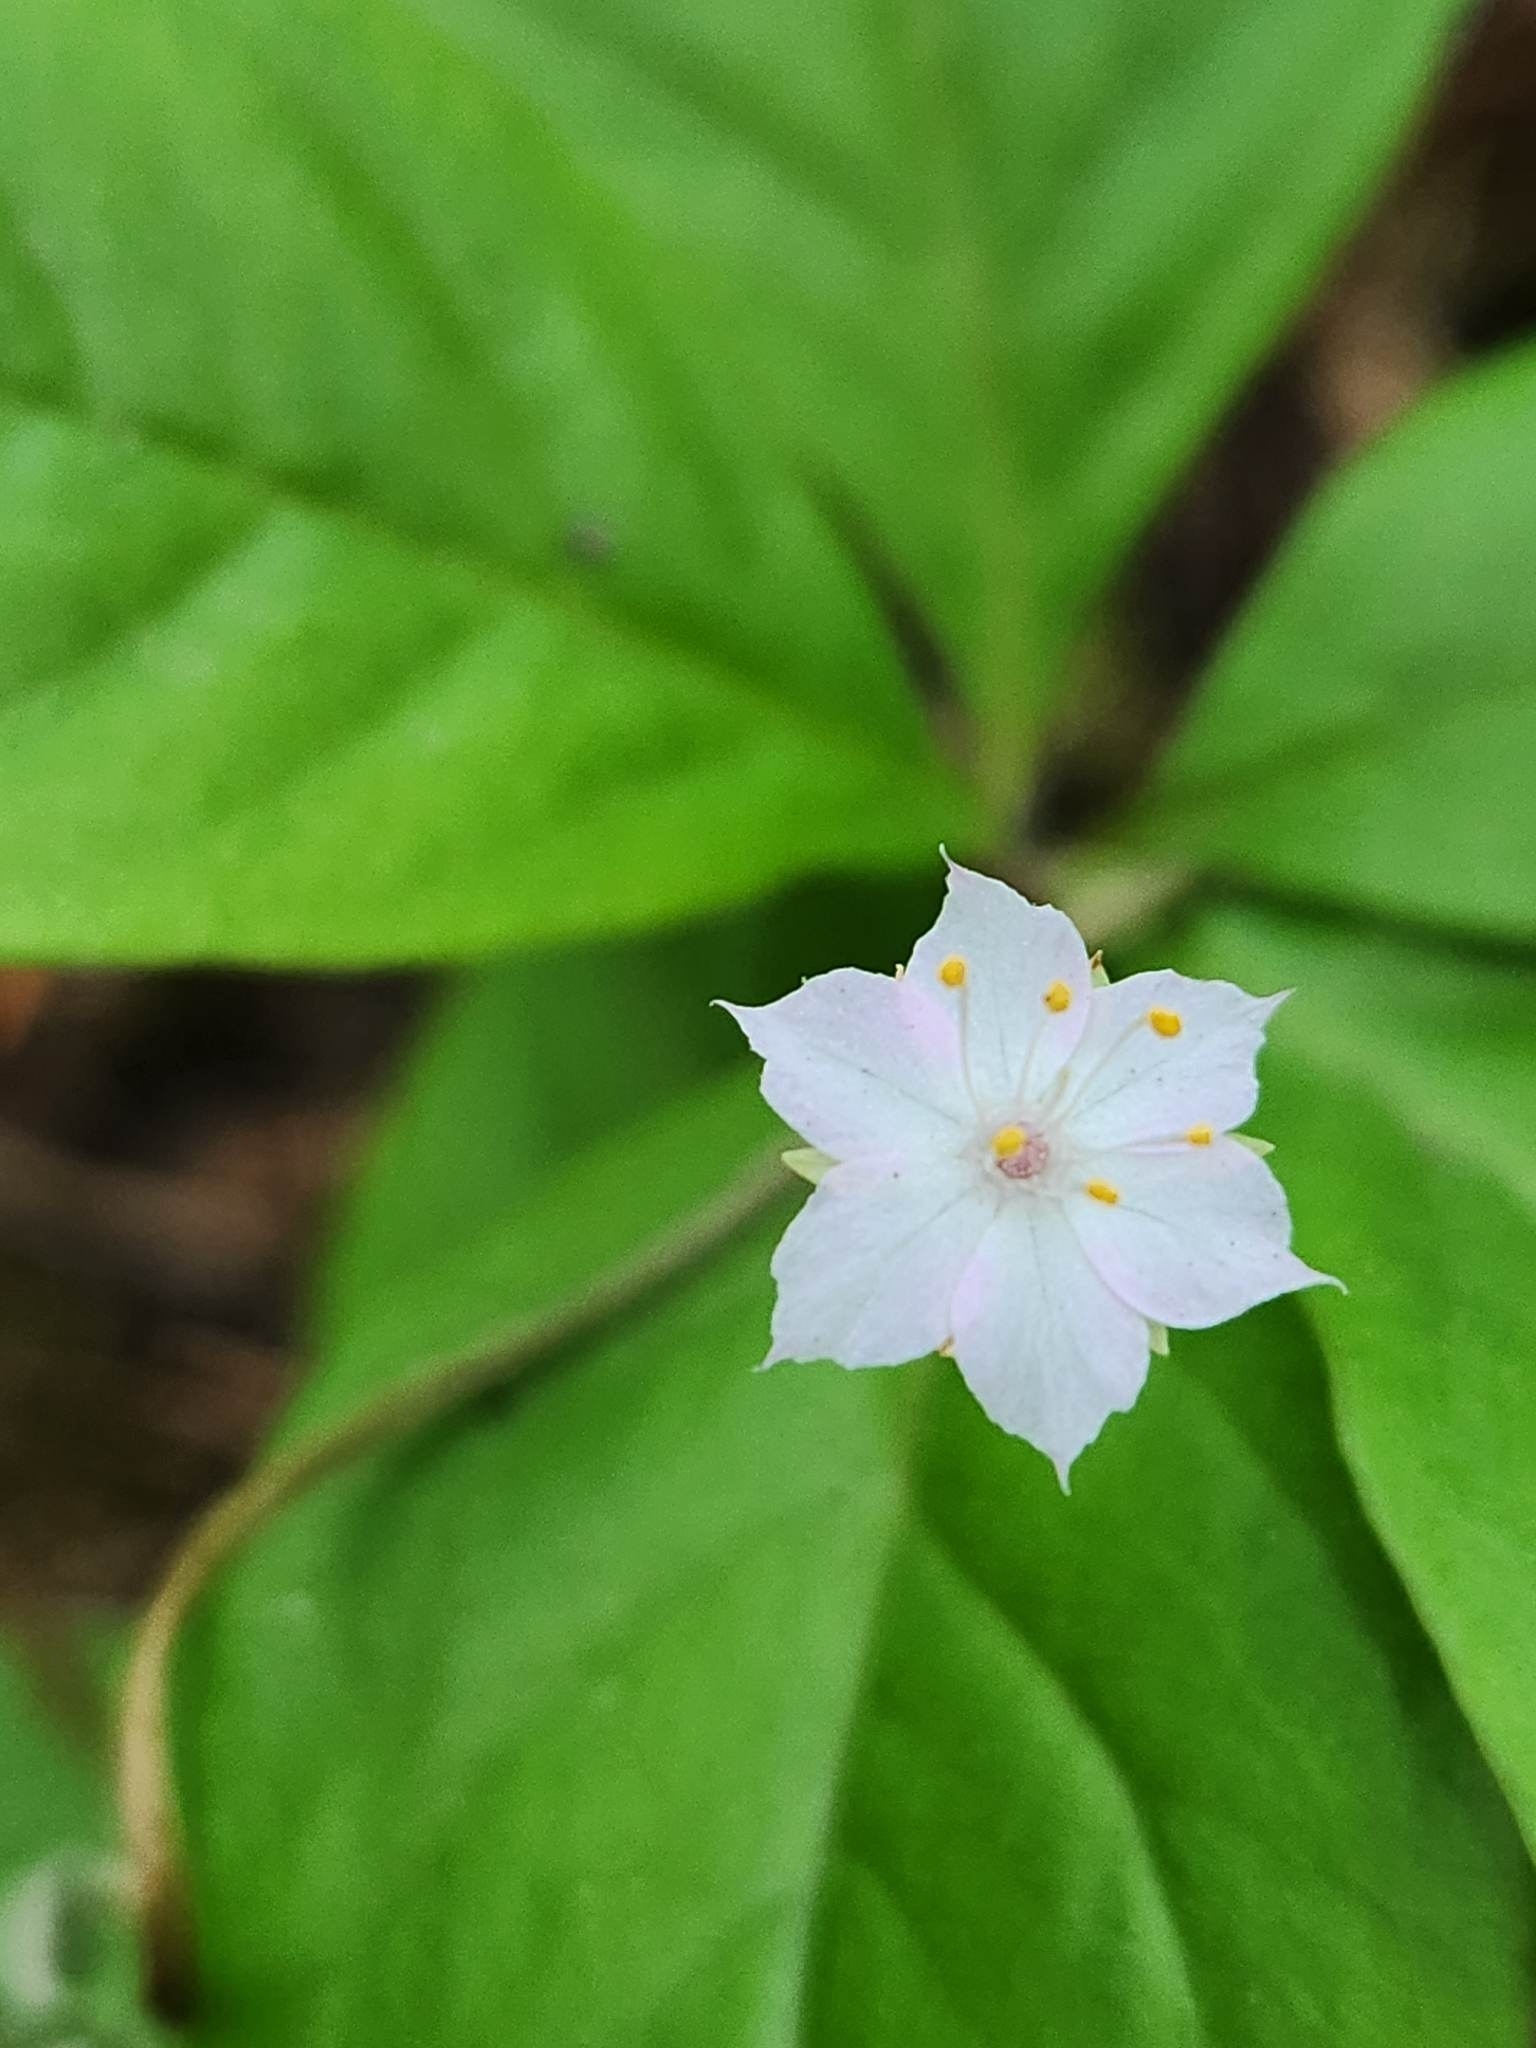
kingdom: Plantae
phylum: Tracheophyta
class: Magnoliopsida
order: Ericales
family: Primulaceae
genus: Lysimachia
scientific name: Lysimachia latifolia
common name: Pacific starflower
